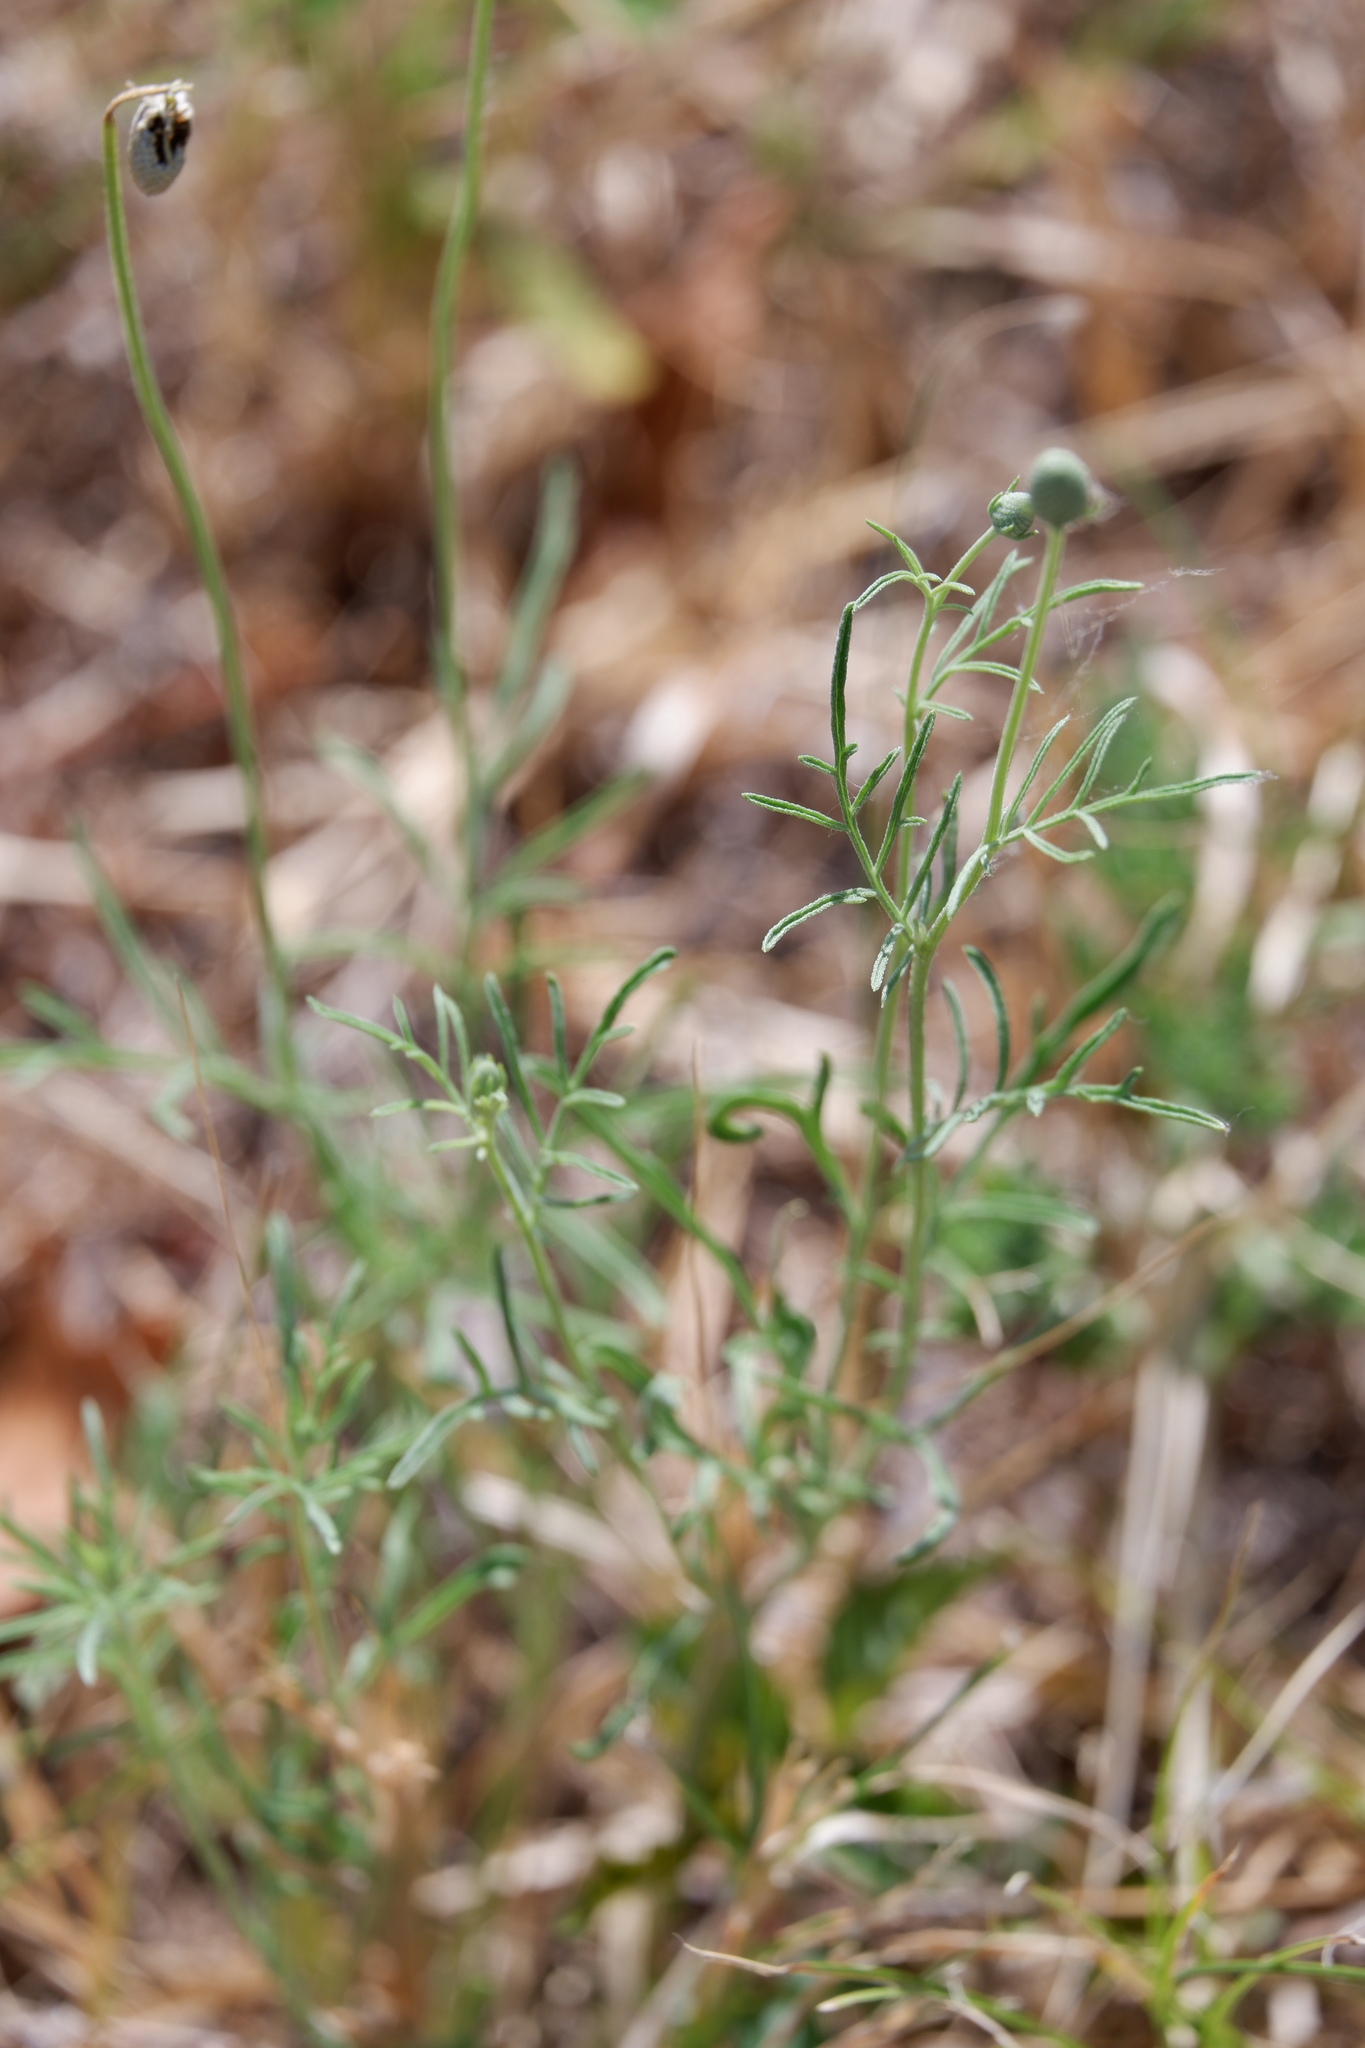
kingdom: Plantae
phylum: Tracheophyta
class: Magnoliopsida
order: Asterales
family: Asteraceae
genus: Ratibida
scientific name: Ratibida columnifera
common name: Prairie coneflower
